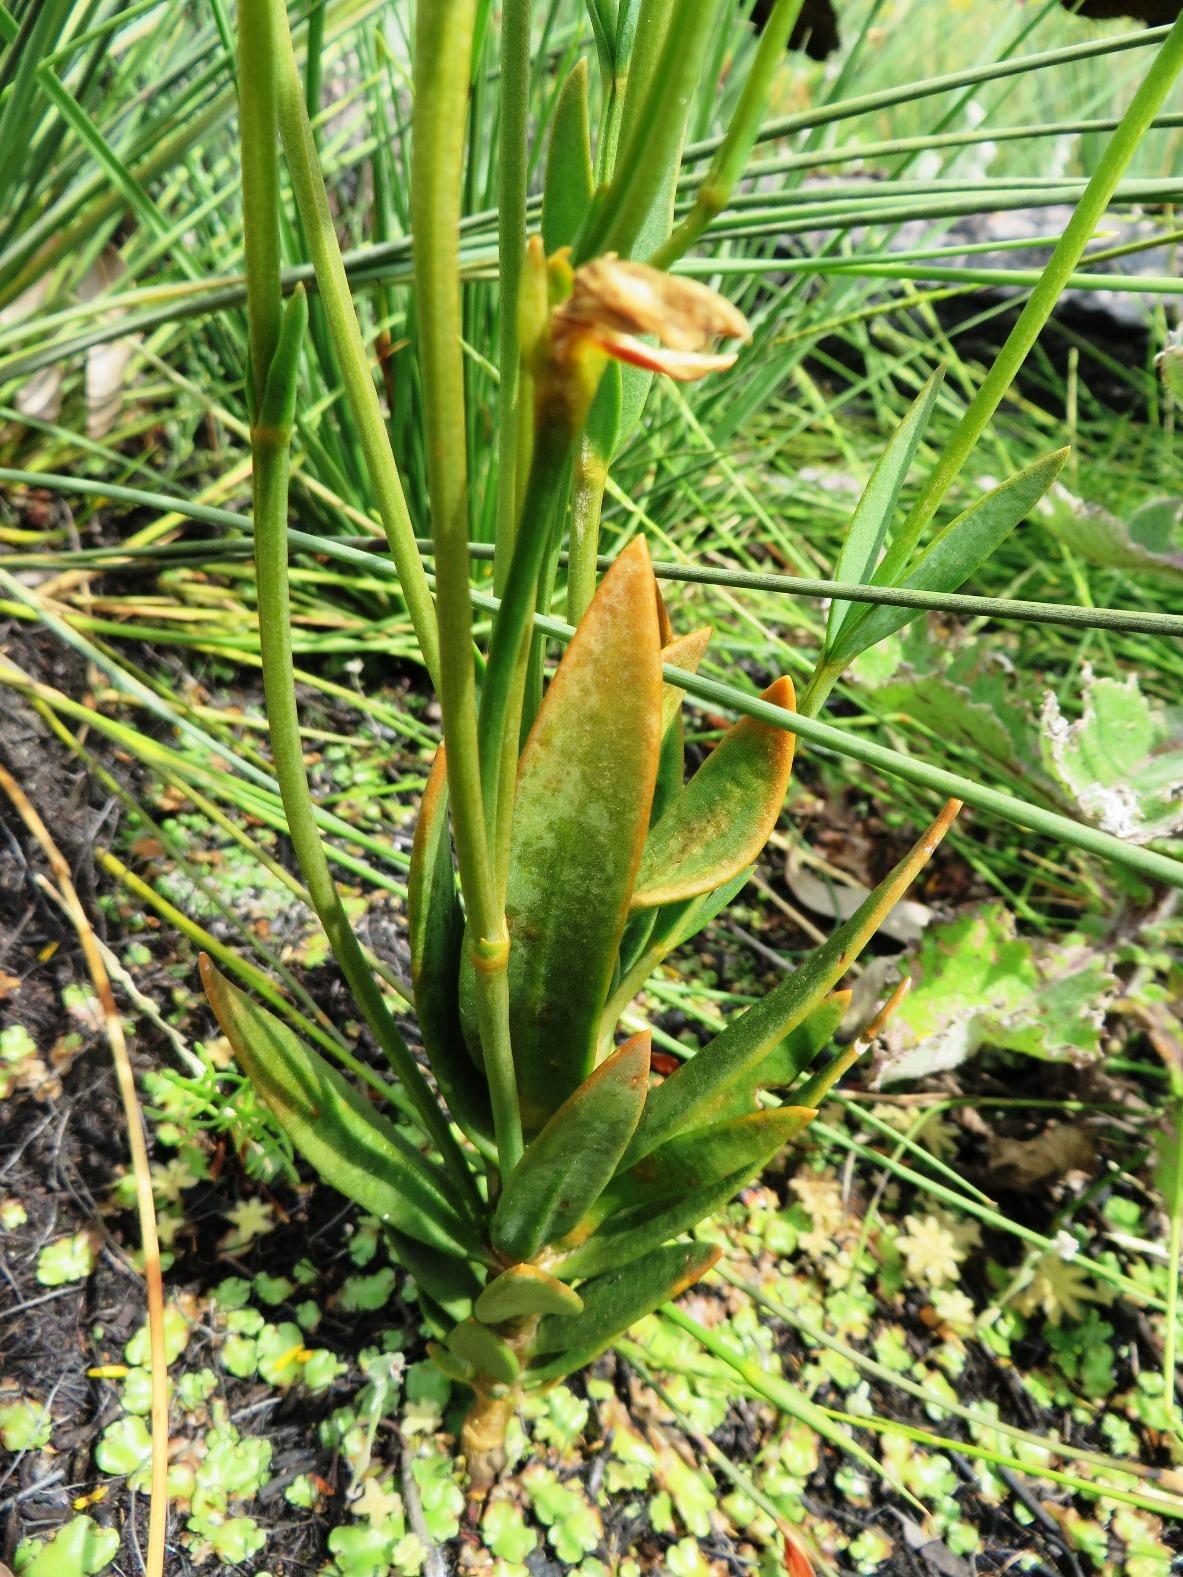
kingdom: Plantae
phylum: Tracheophyta
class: Magnoliopsida
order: Gentianales
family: Gentianaceae
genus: Chironia
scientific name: Chironia tetragona
